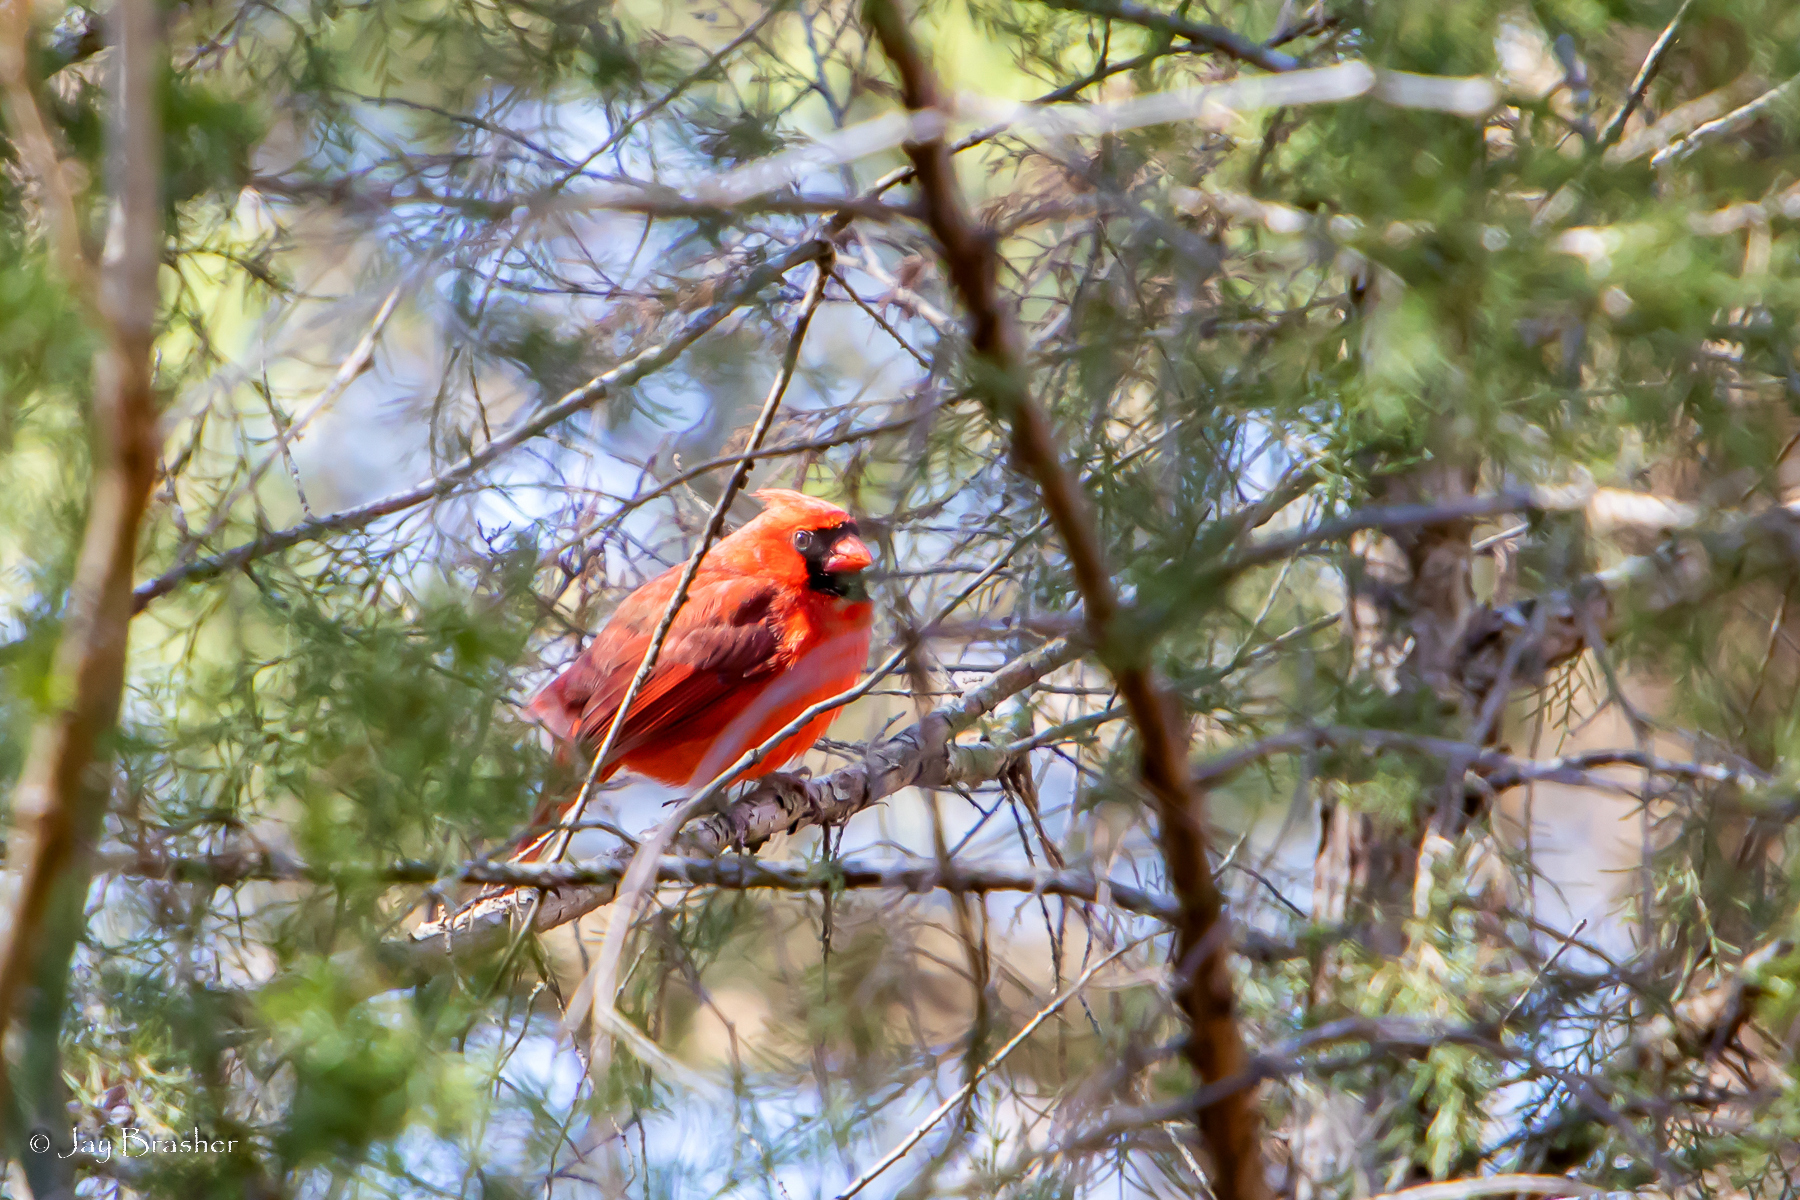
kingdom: Animalia
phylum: Chordata
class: Aves
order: Passeriformes
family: Cardinalidae
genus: Cardinalis
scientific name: Cardinalis cardinalis
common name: Northern cardinal
